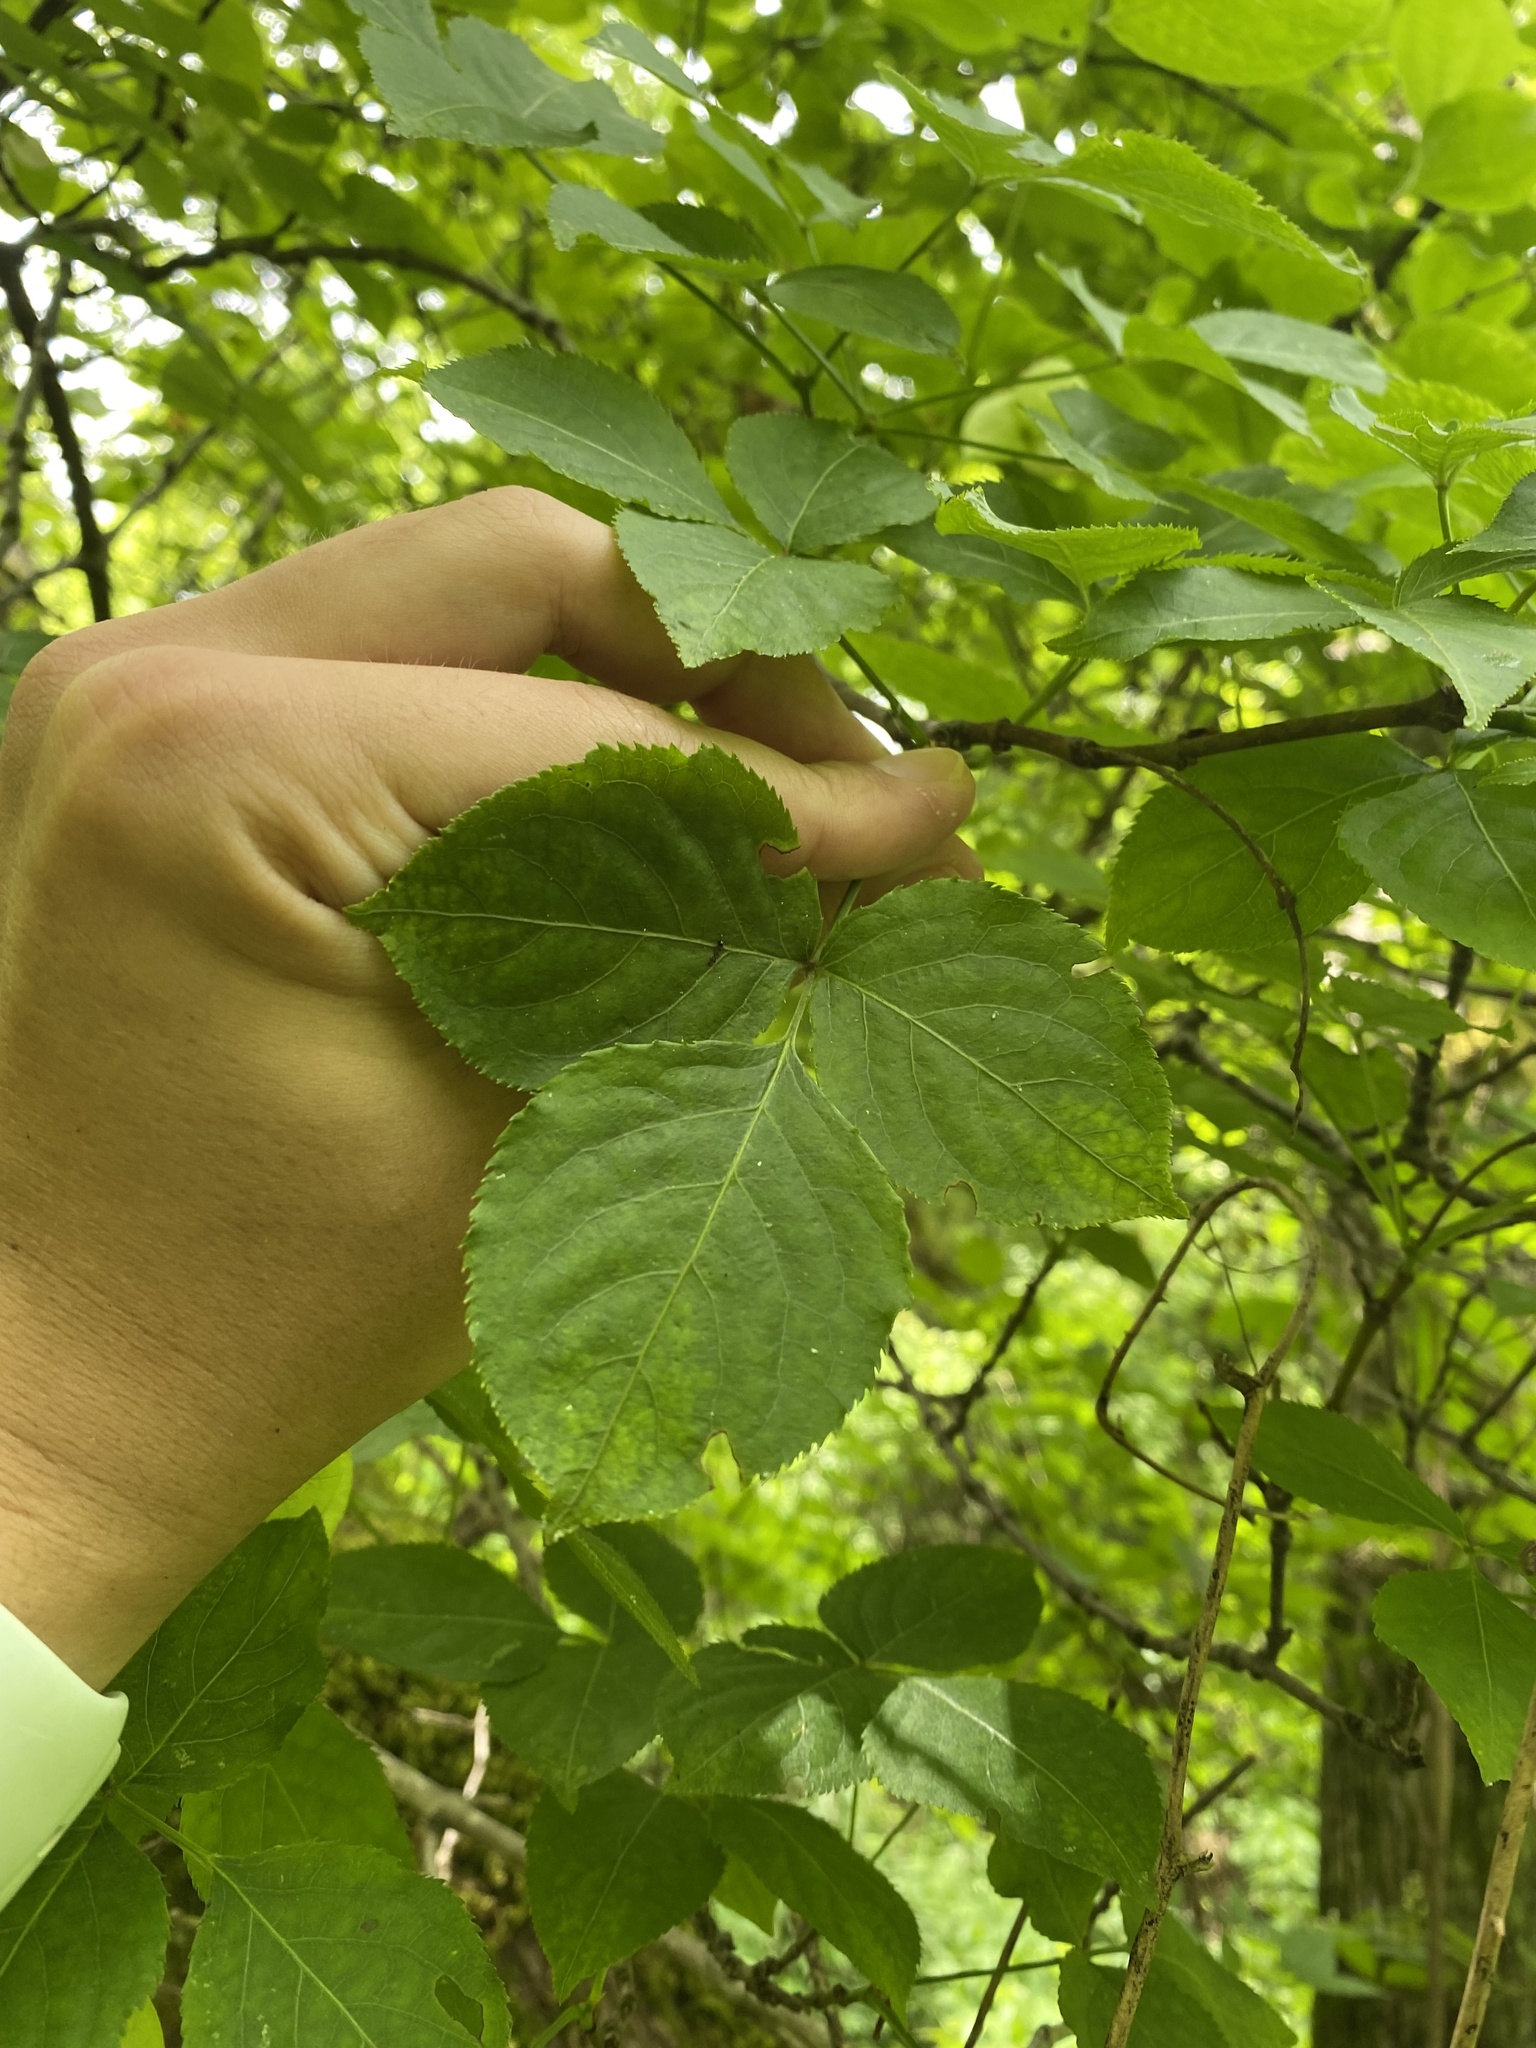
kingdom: Plantae
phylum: Tracheophyta
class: Magnoliopsida
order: Crossosomatales
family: Staphyleaceae
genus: Staphylea
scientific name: Staphylea colchica
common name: Caucasian bladdernut
